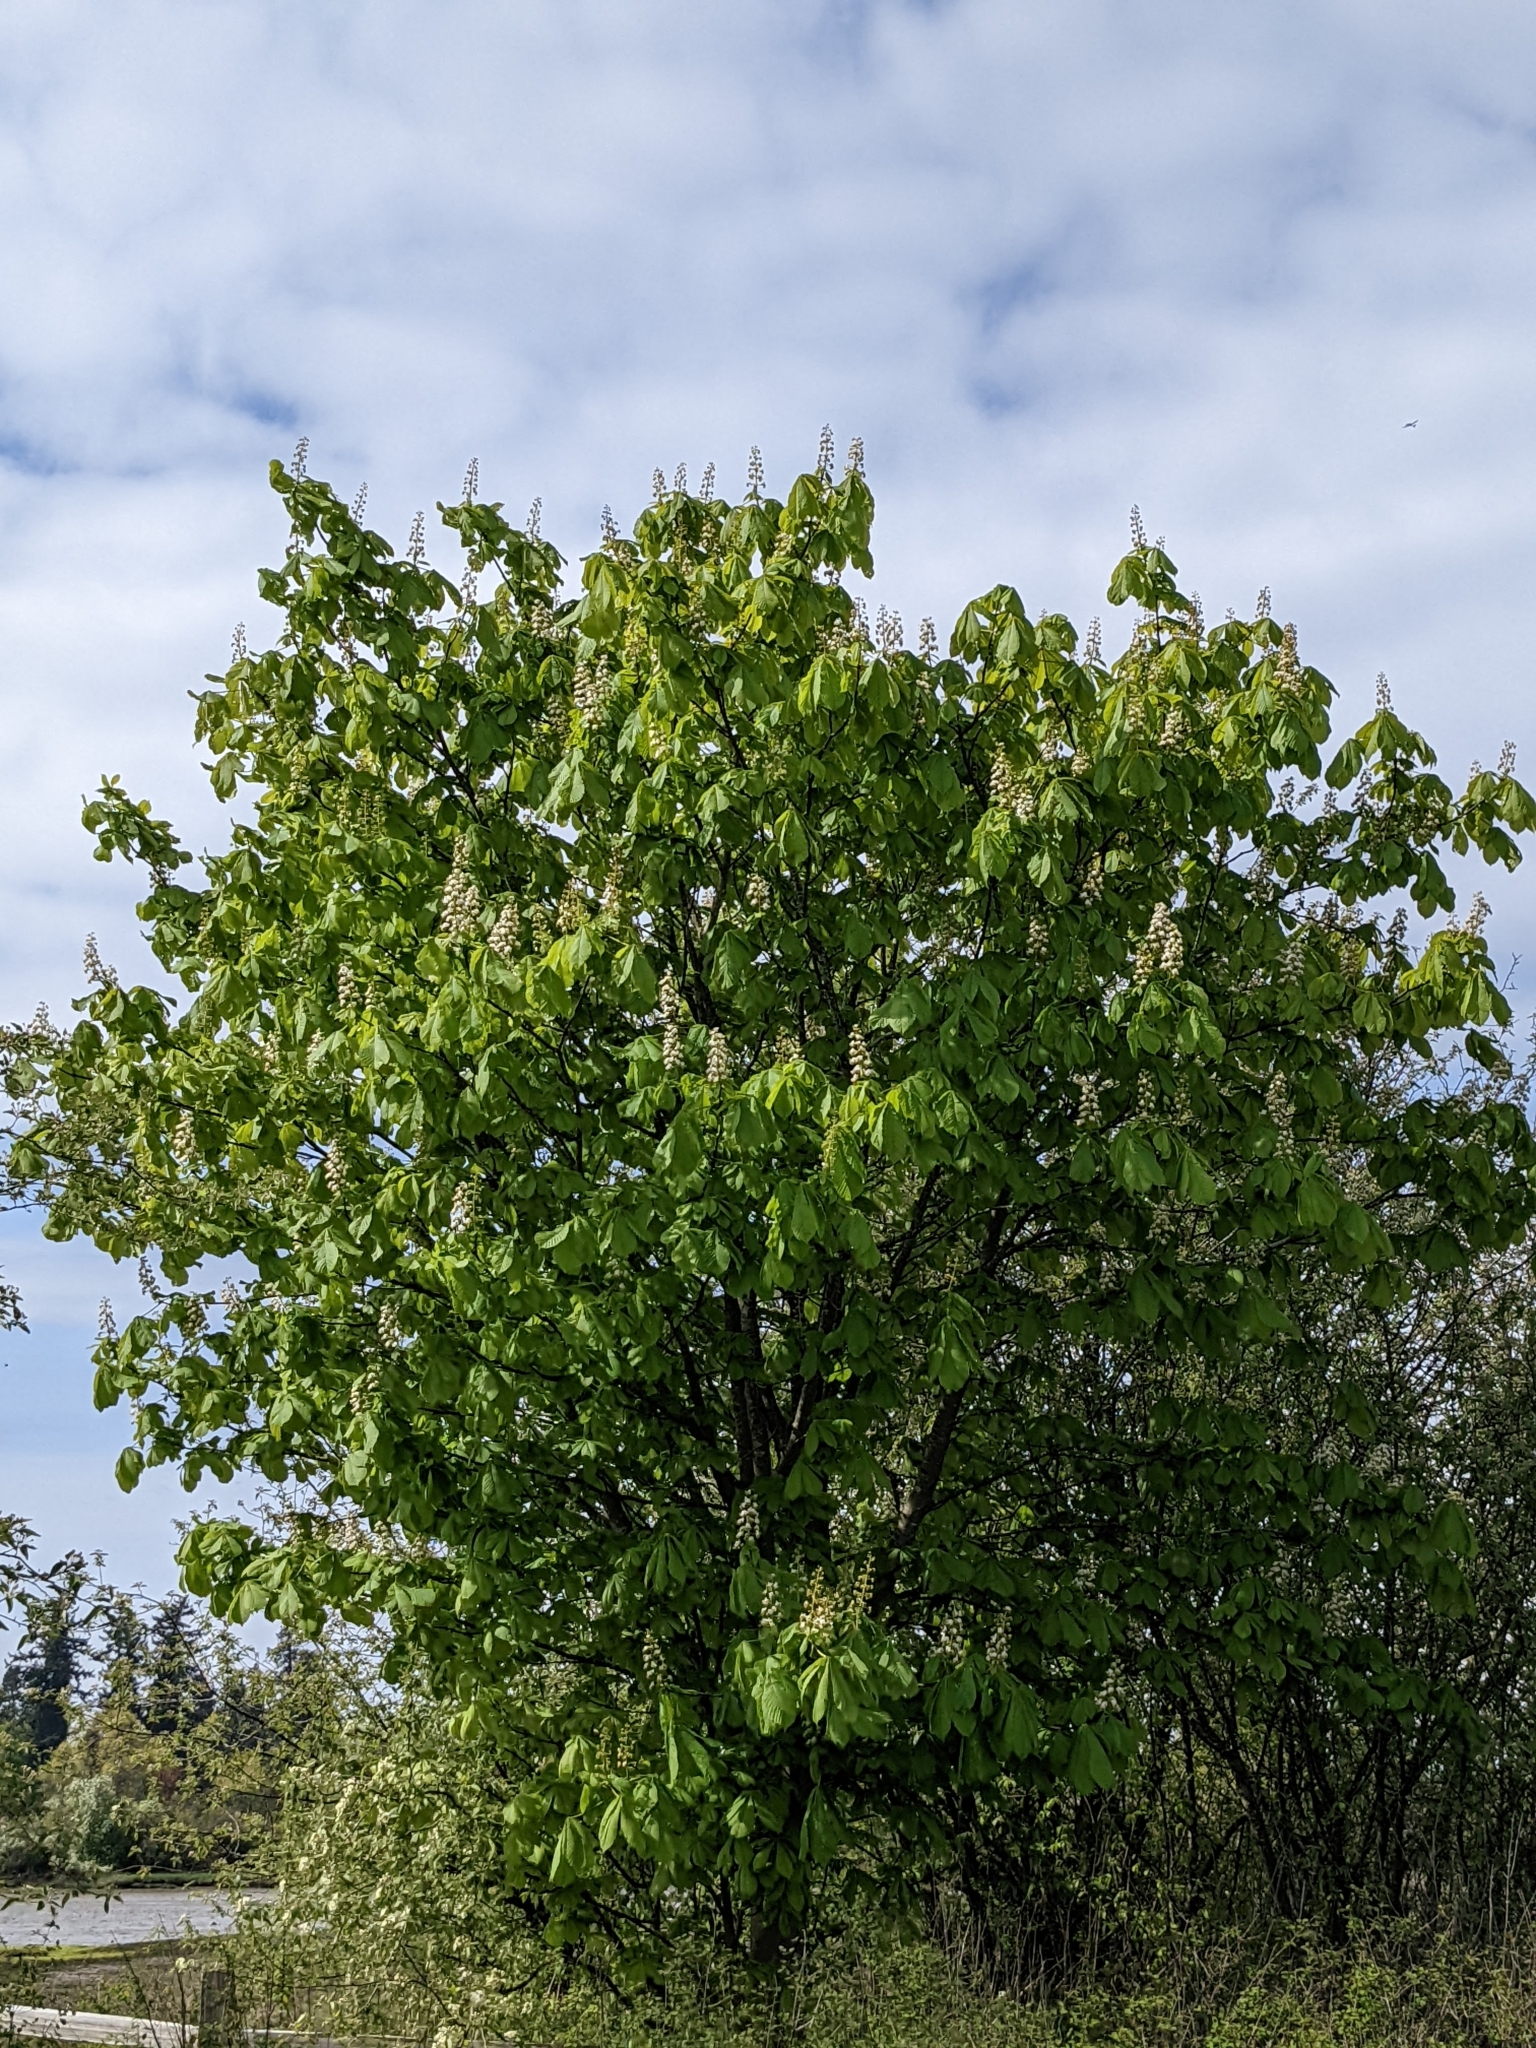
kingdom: Plantae
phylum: Tracheophyta
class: Magnoliopsida
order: Sapindales
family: Sapindaceae
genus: Aesculus
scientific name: Aesculus hippocastanum
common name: Horse-chestnut
